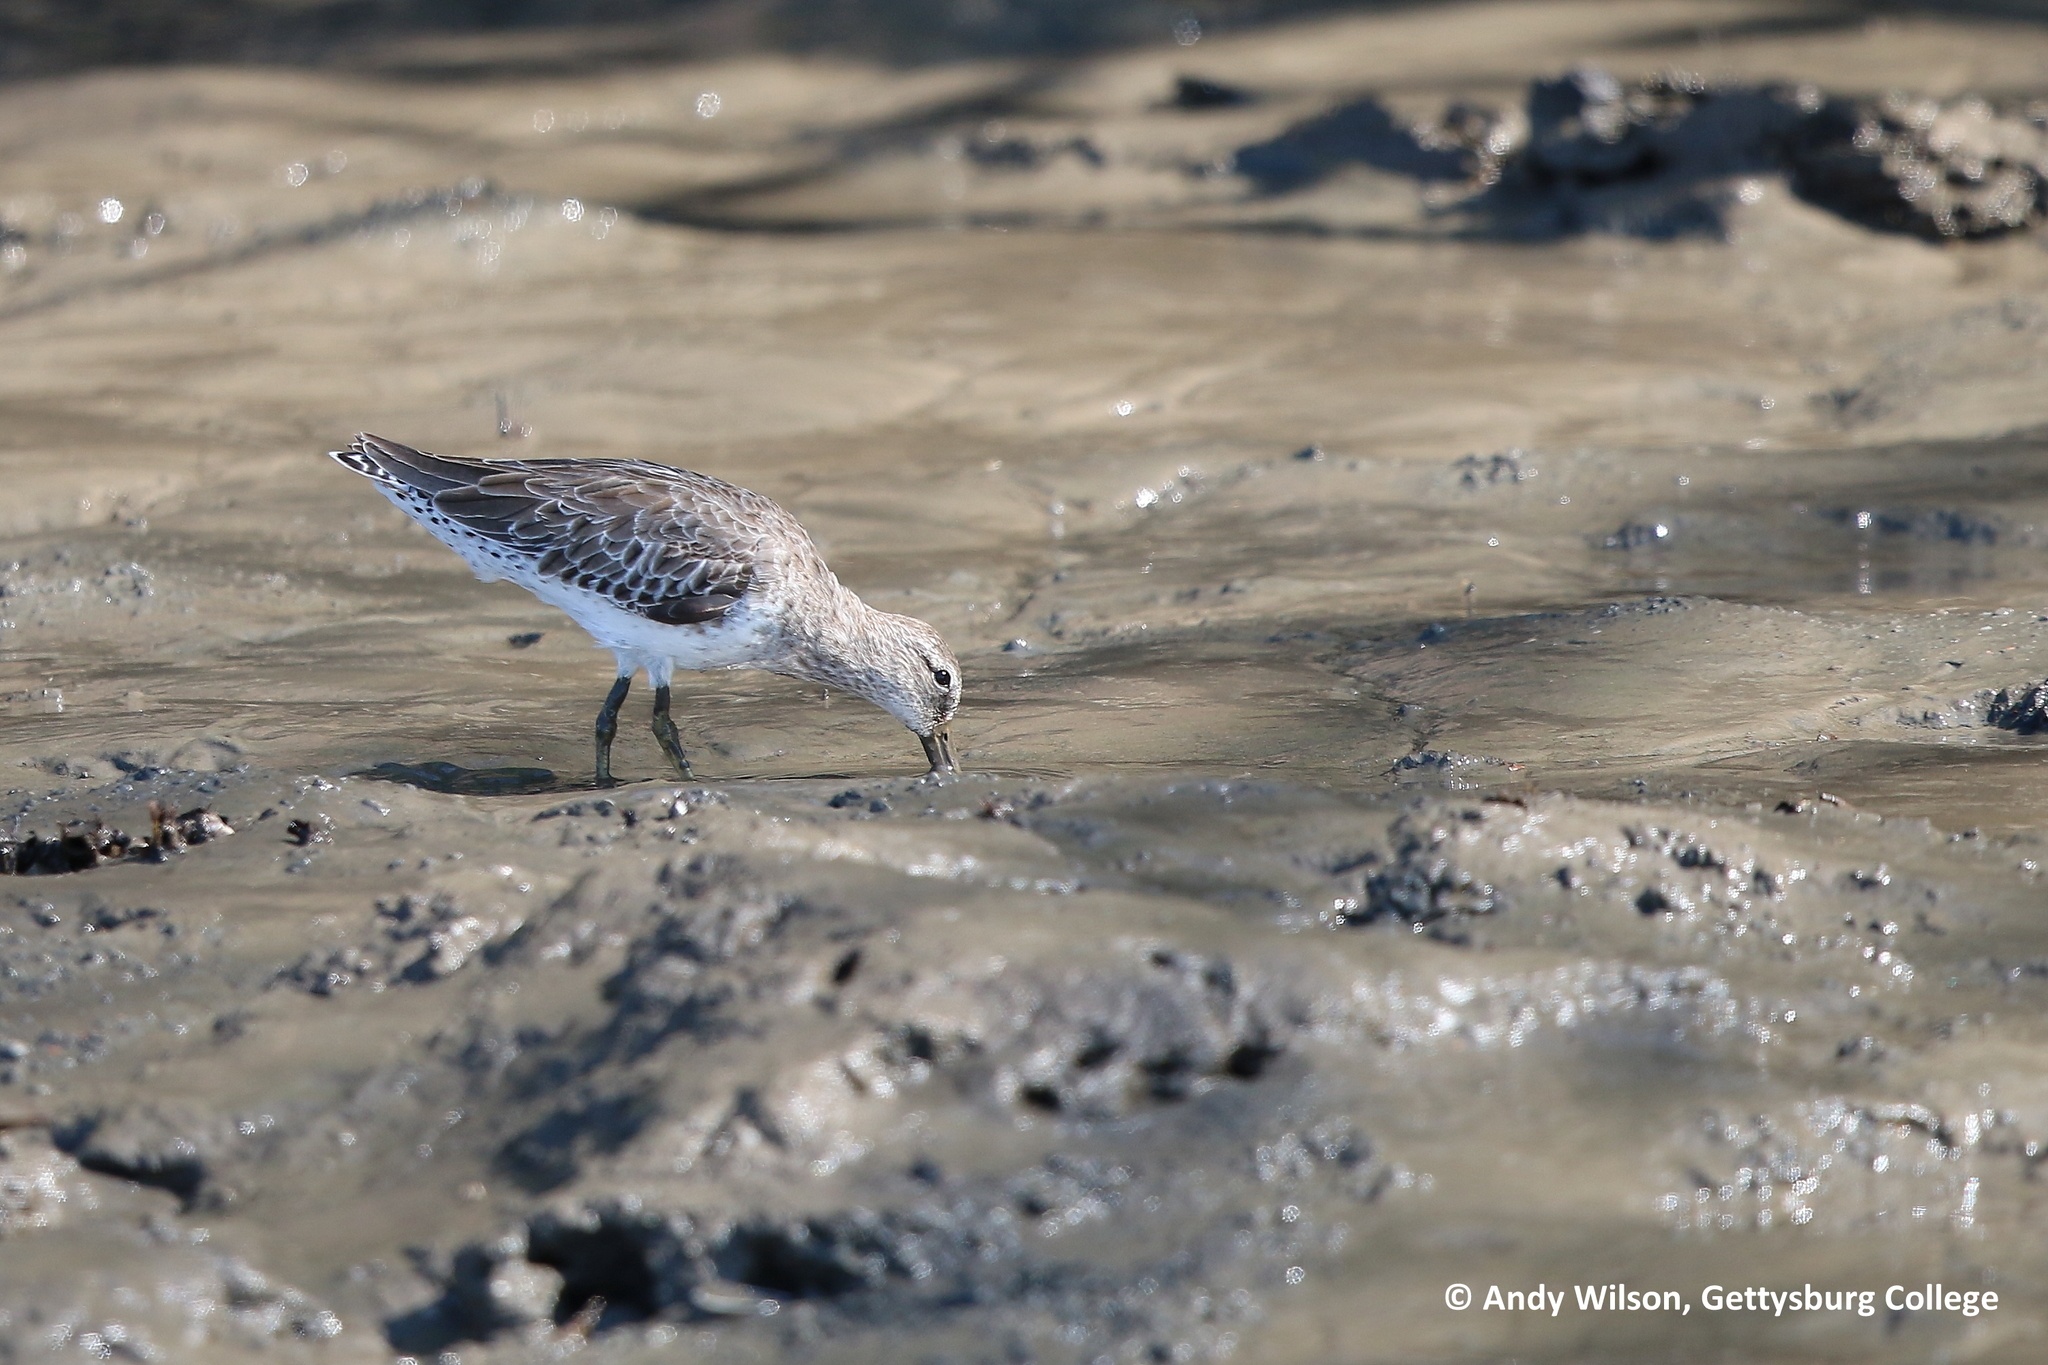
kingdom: Animalia
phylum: Chordata
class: Aves
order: Charadriiformes
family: Scolopacidae
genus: Limnodromus
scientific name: Limnodromus griseus
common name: Short-billed dowitcher
